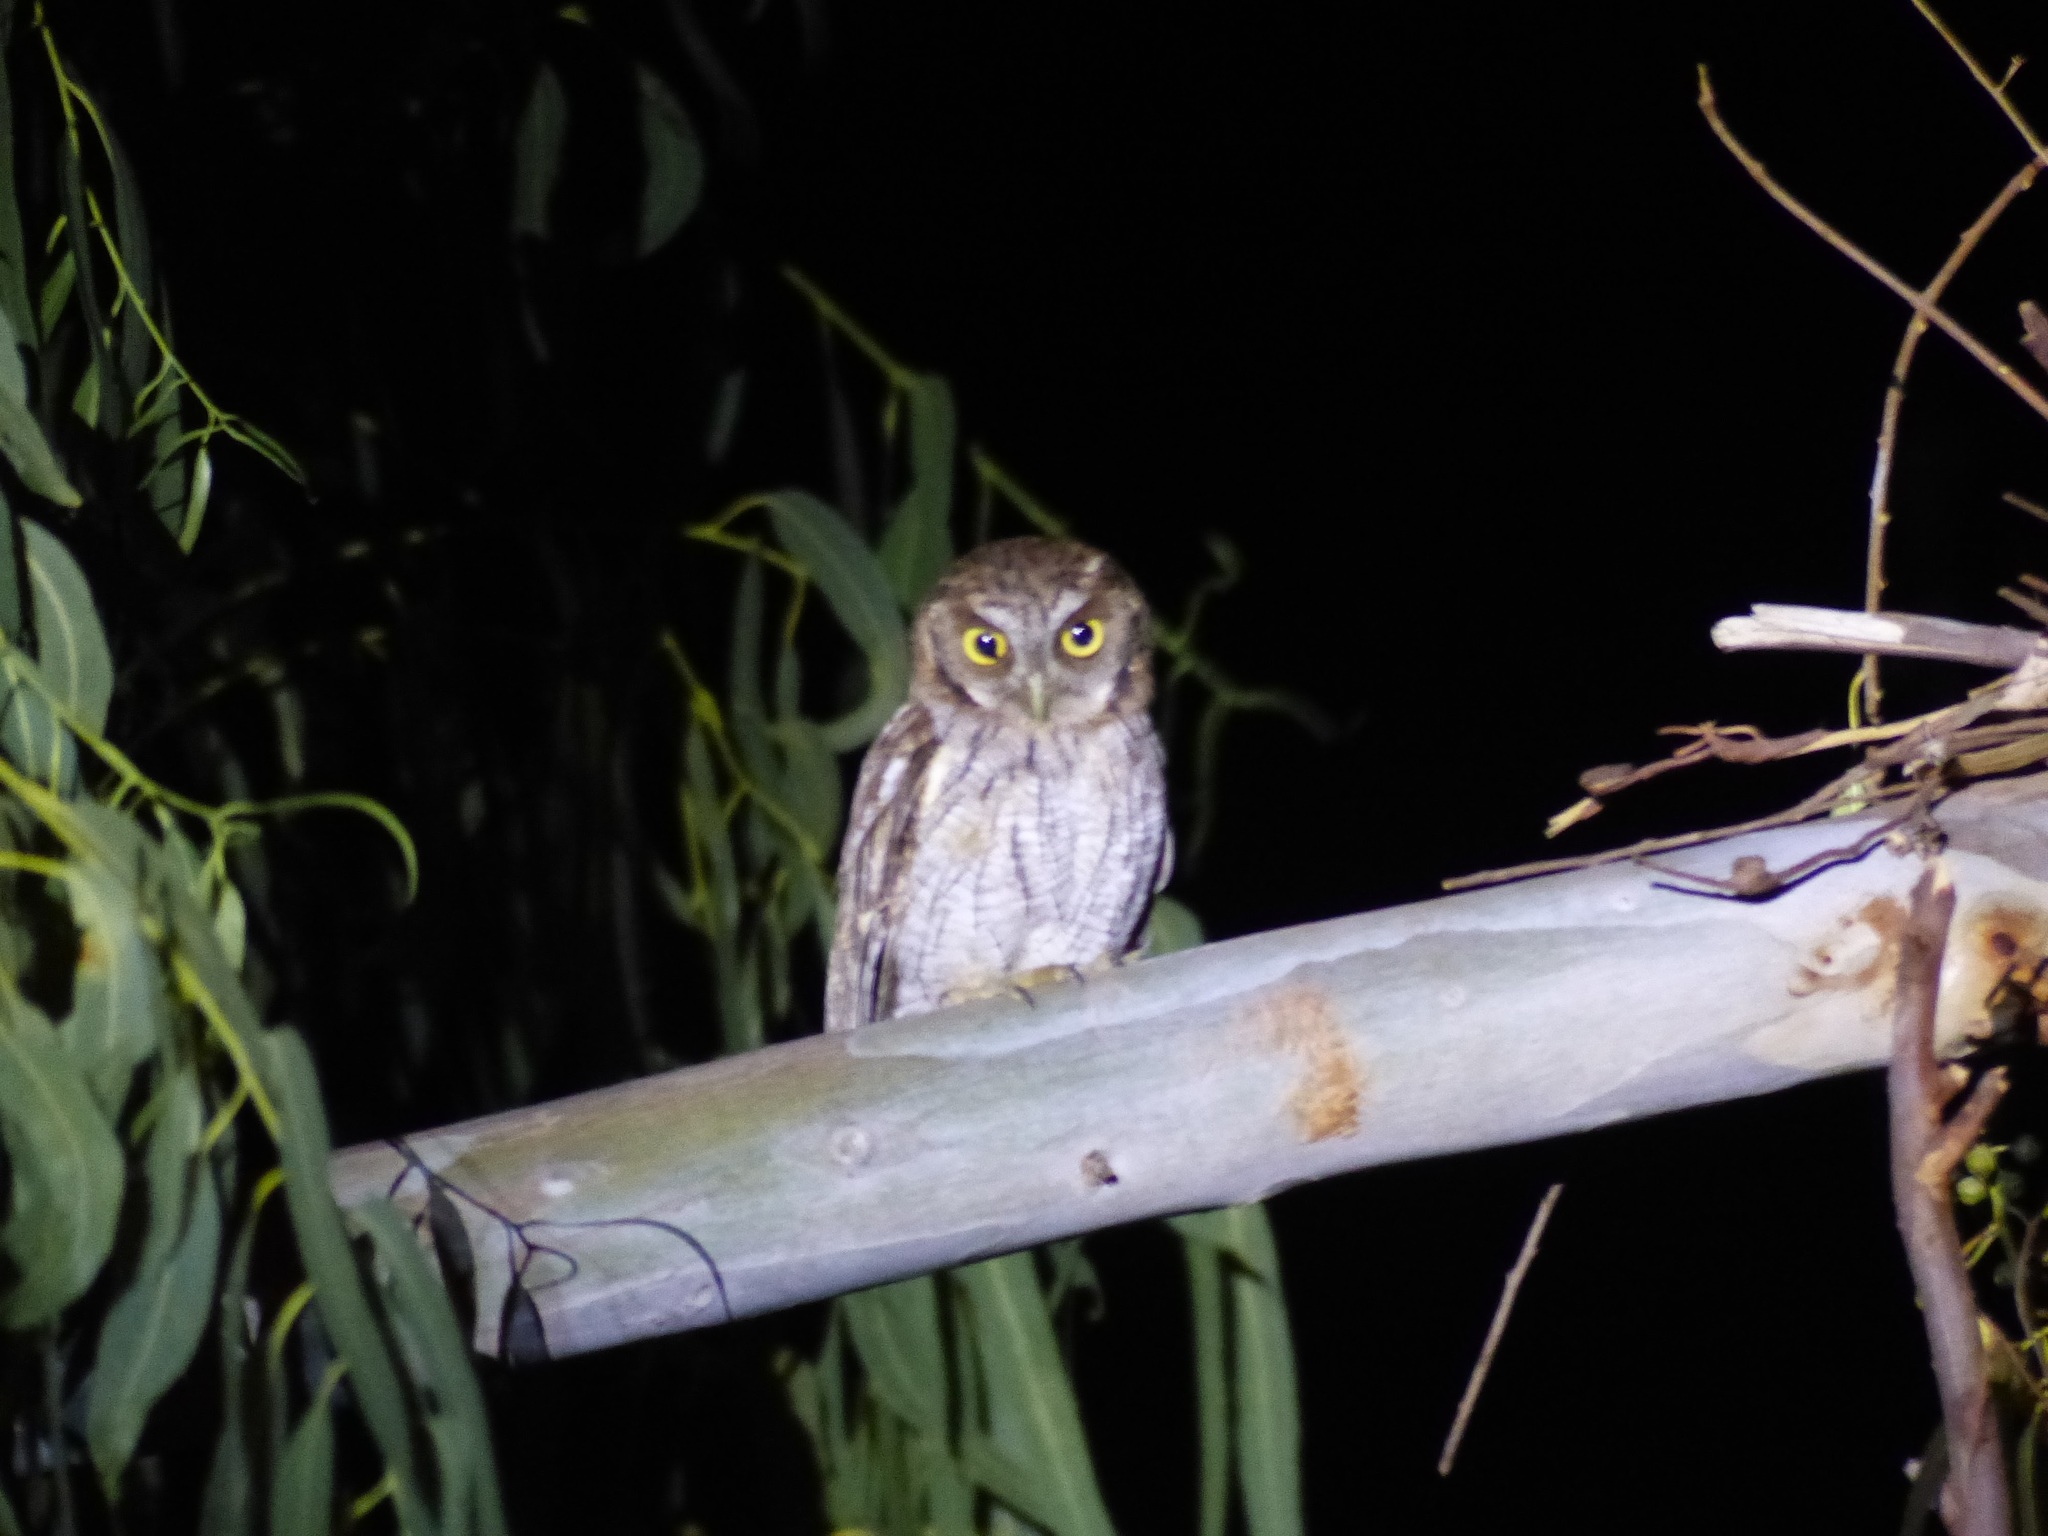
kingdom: Animalia
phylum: Chordata
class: Aves
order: Strigiformes
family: Strigidae
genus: Megascops
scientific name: Megascops choliba
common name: Tropical screech-owl
